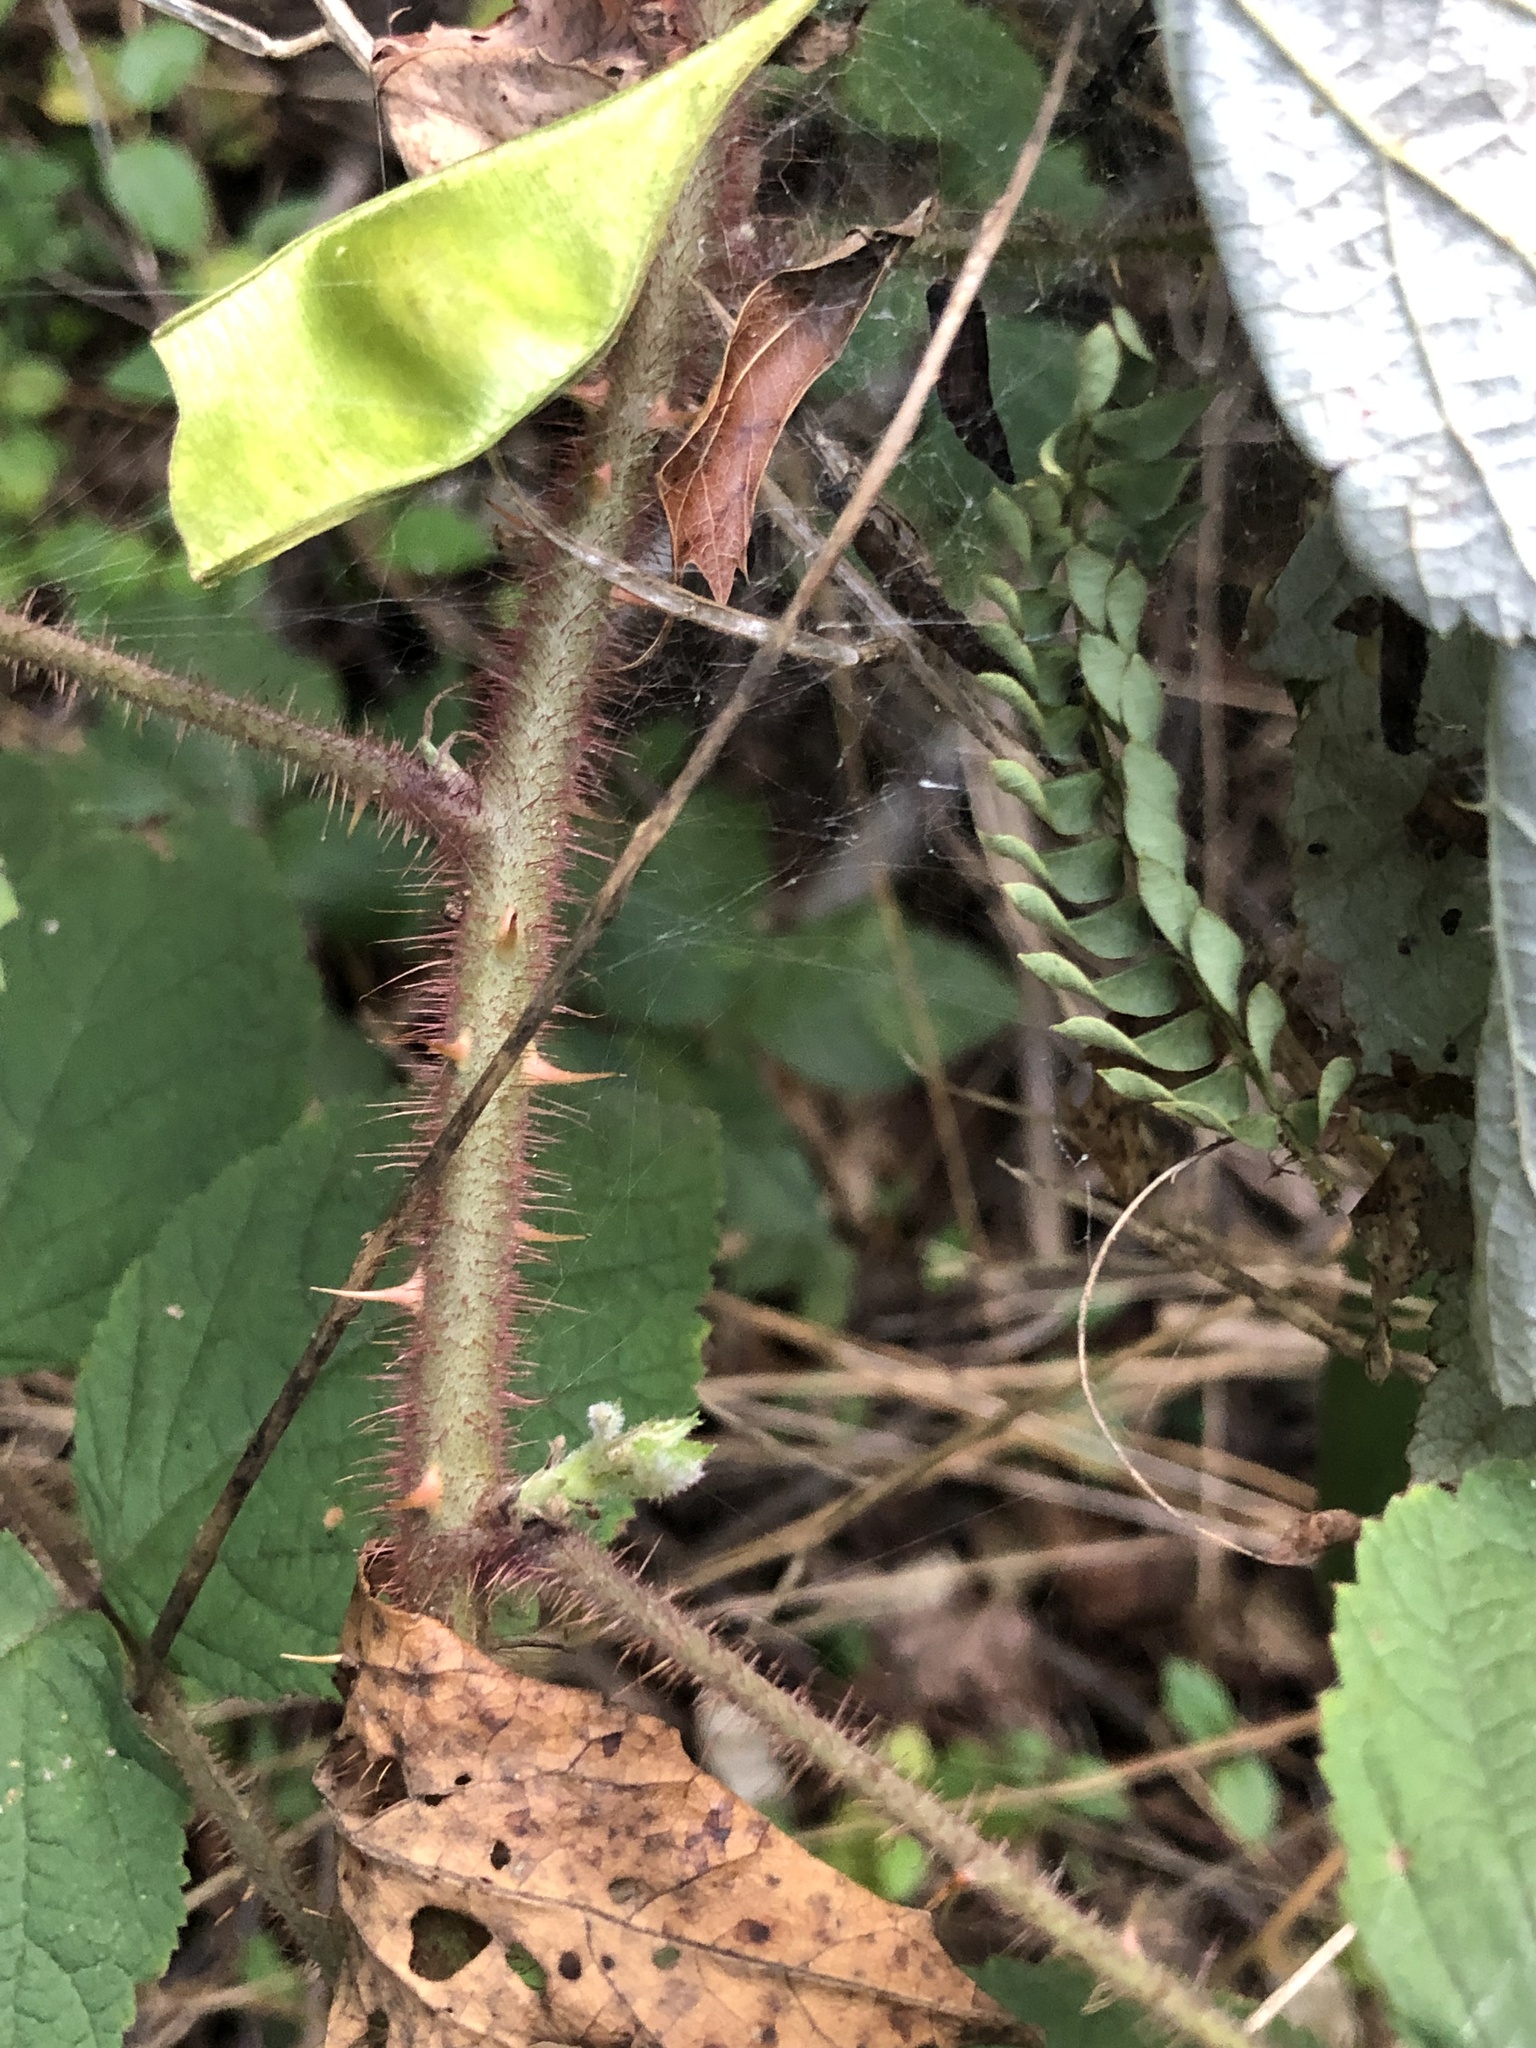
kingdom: Plantae
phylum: Tracheophyta
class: Magnoliopsida
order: Rosales
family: Rosaceae
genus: Rubus
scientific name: Rubus phoenicolasius
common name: Japanese wineberry
